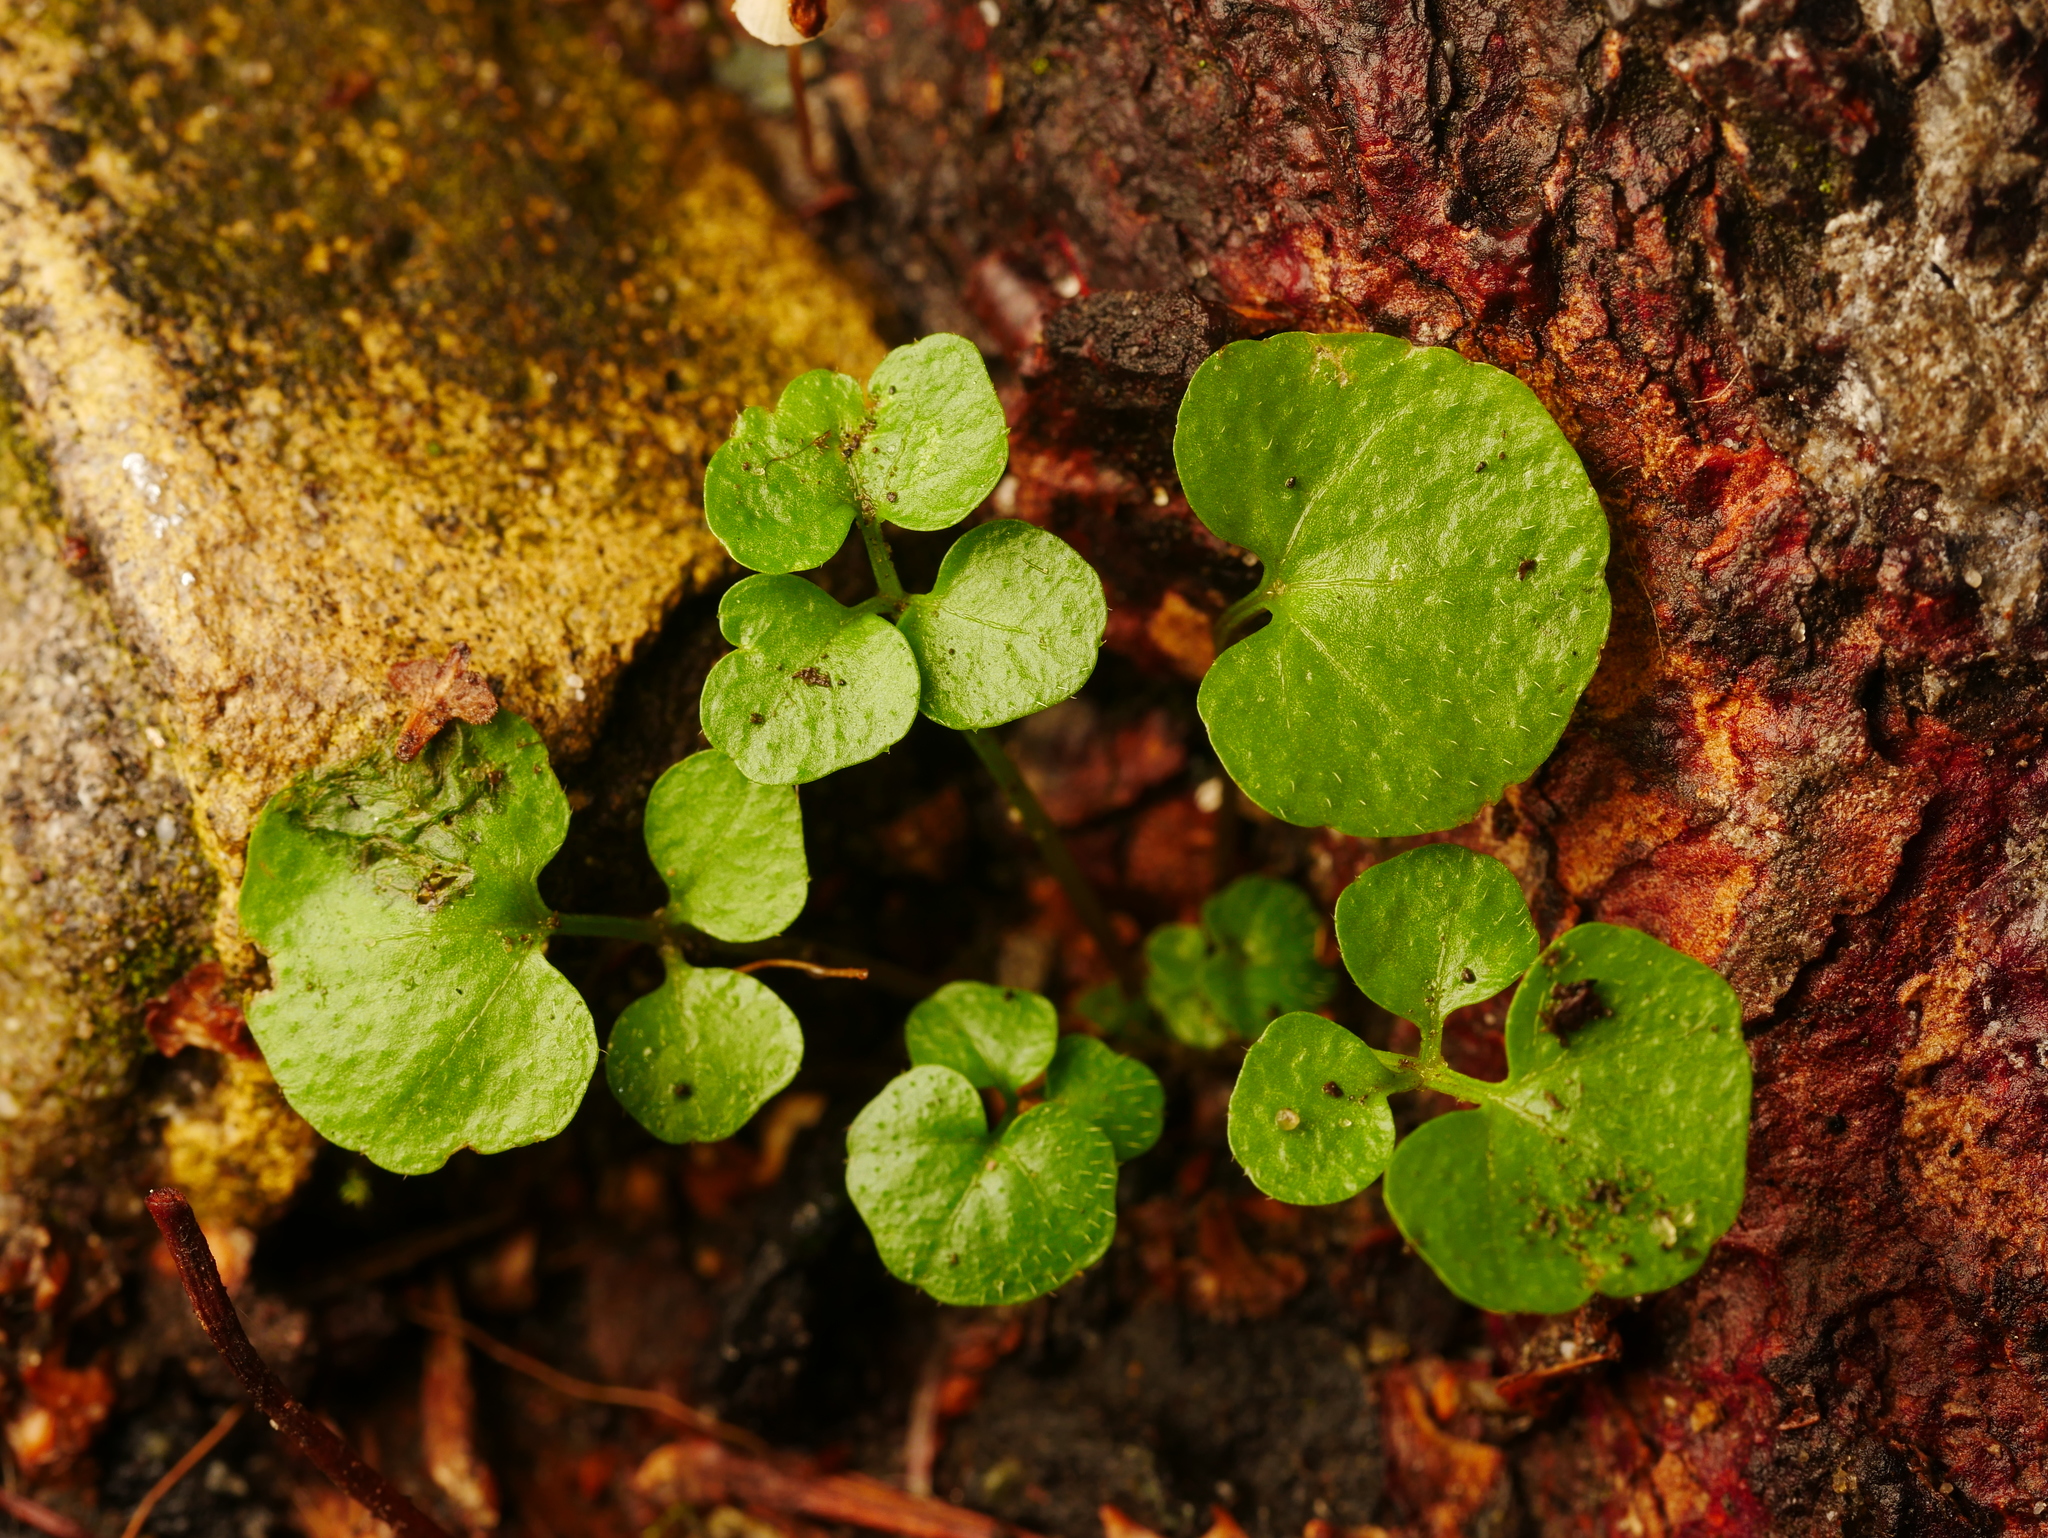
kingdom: Plantae
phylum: Tracheophyta
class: Magnoliopsida
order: Brassicales
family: Brassicaceae
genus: Cardamine
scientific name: Cardamine hirsuta
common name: Hairy bittercress
